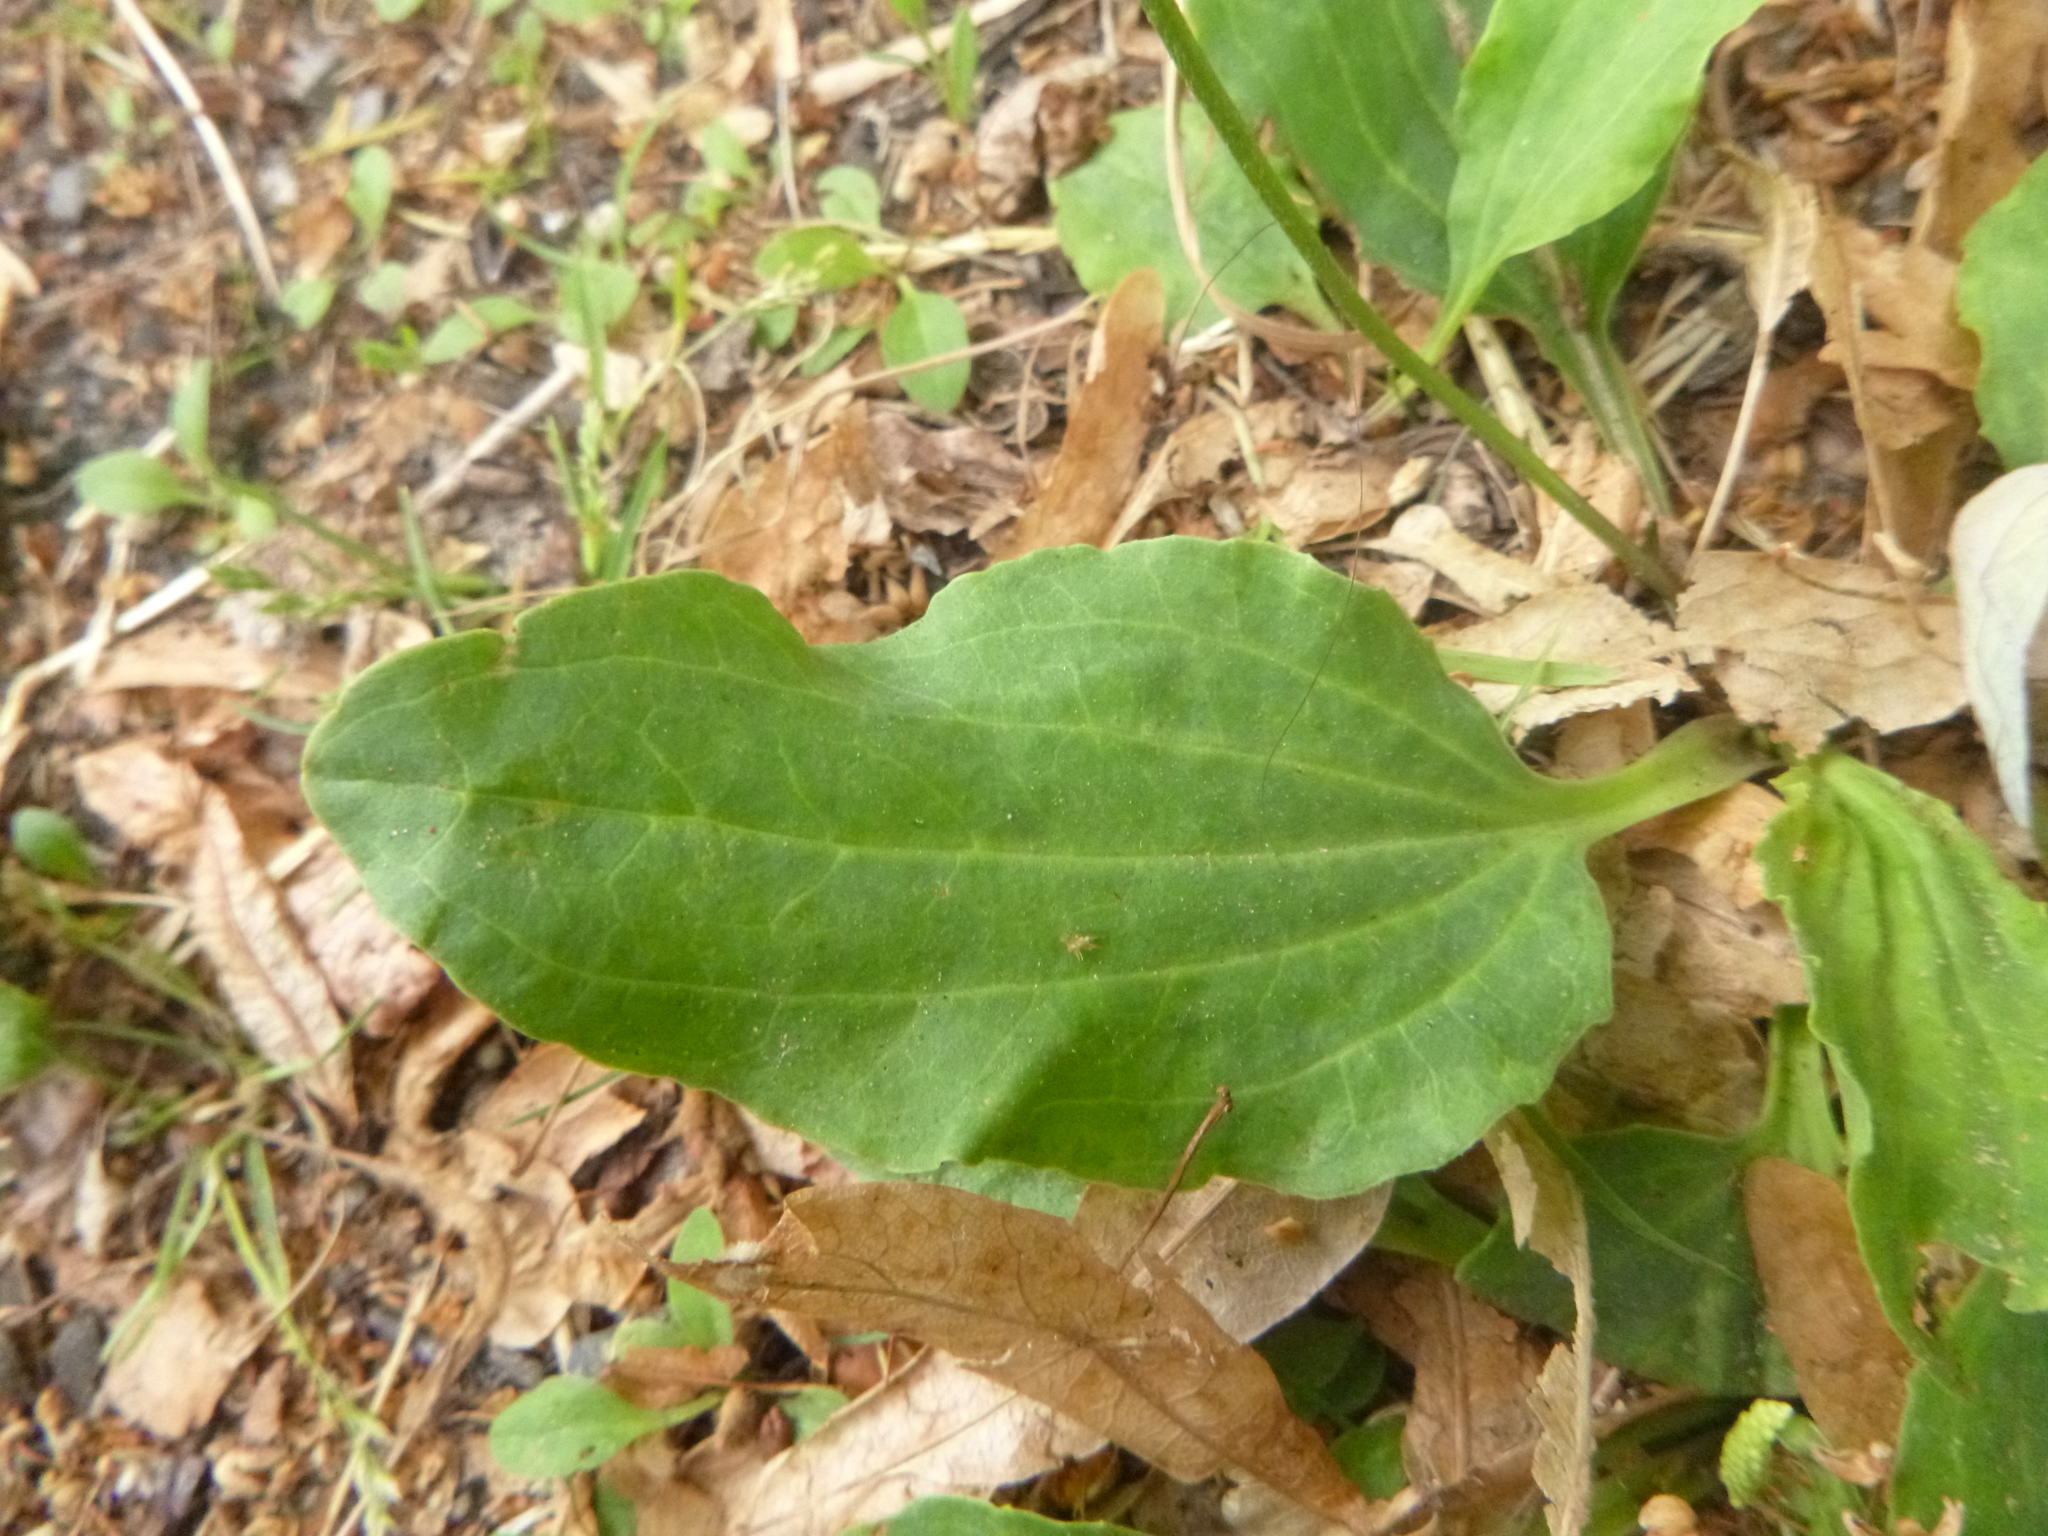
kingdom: Plantae
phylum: Tracheophyta
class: Magnoliopsida
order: Lamiales
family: Plantaginaceae
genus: Plantago
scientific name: Plantago major
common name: Common plantain
